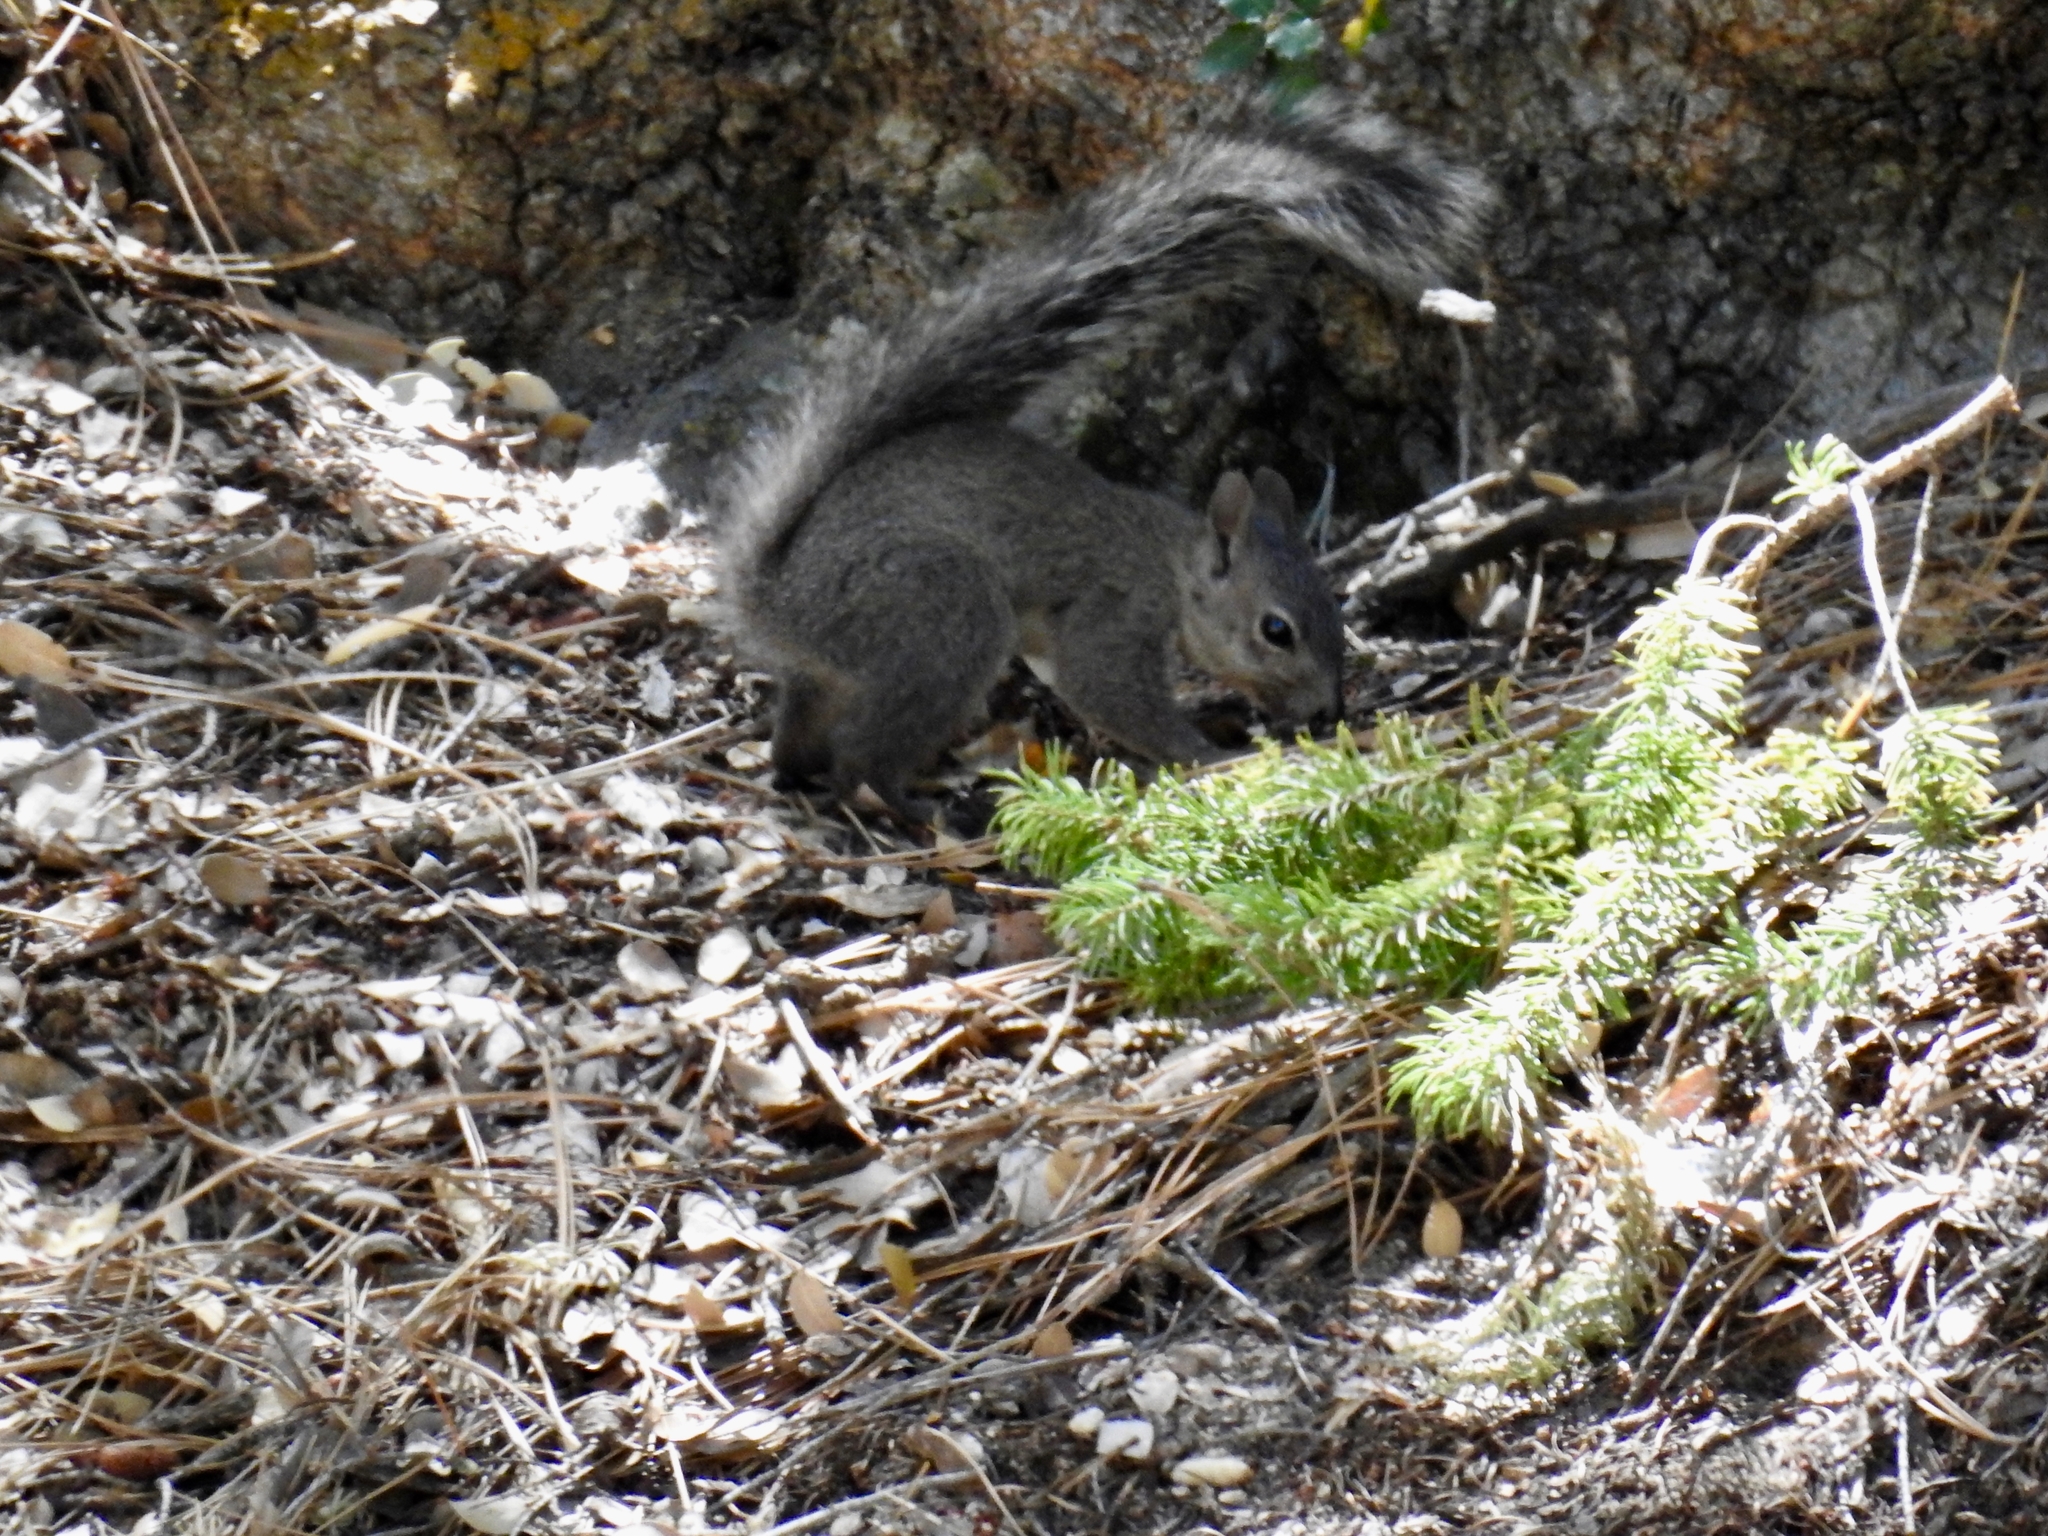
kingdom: Animalia
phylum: Chordata
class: Mammalia
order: Rodentia
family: Sciuridae
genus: Sciurus
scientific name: Sciurus griseus
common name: Western gray squirrel
